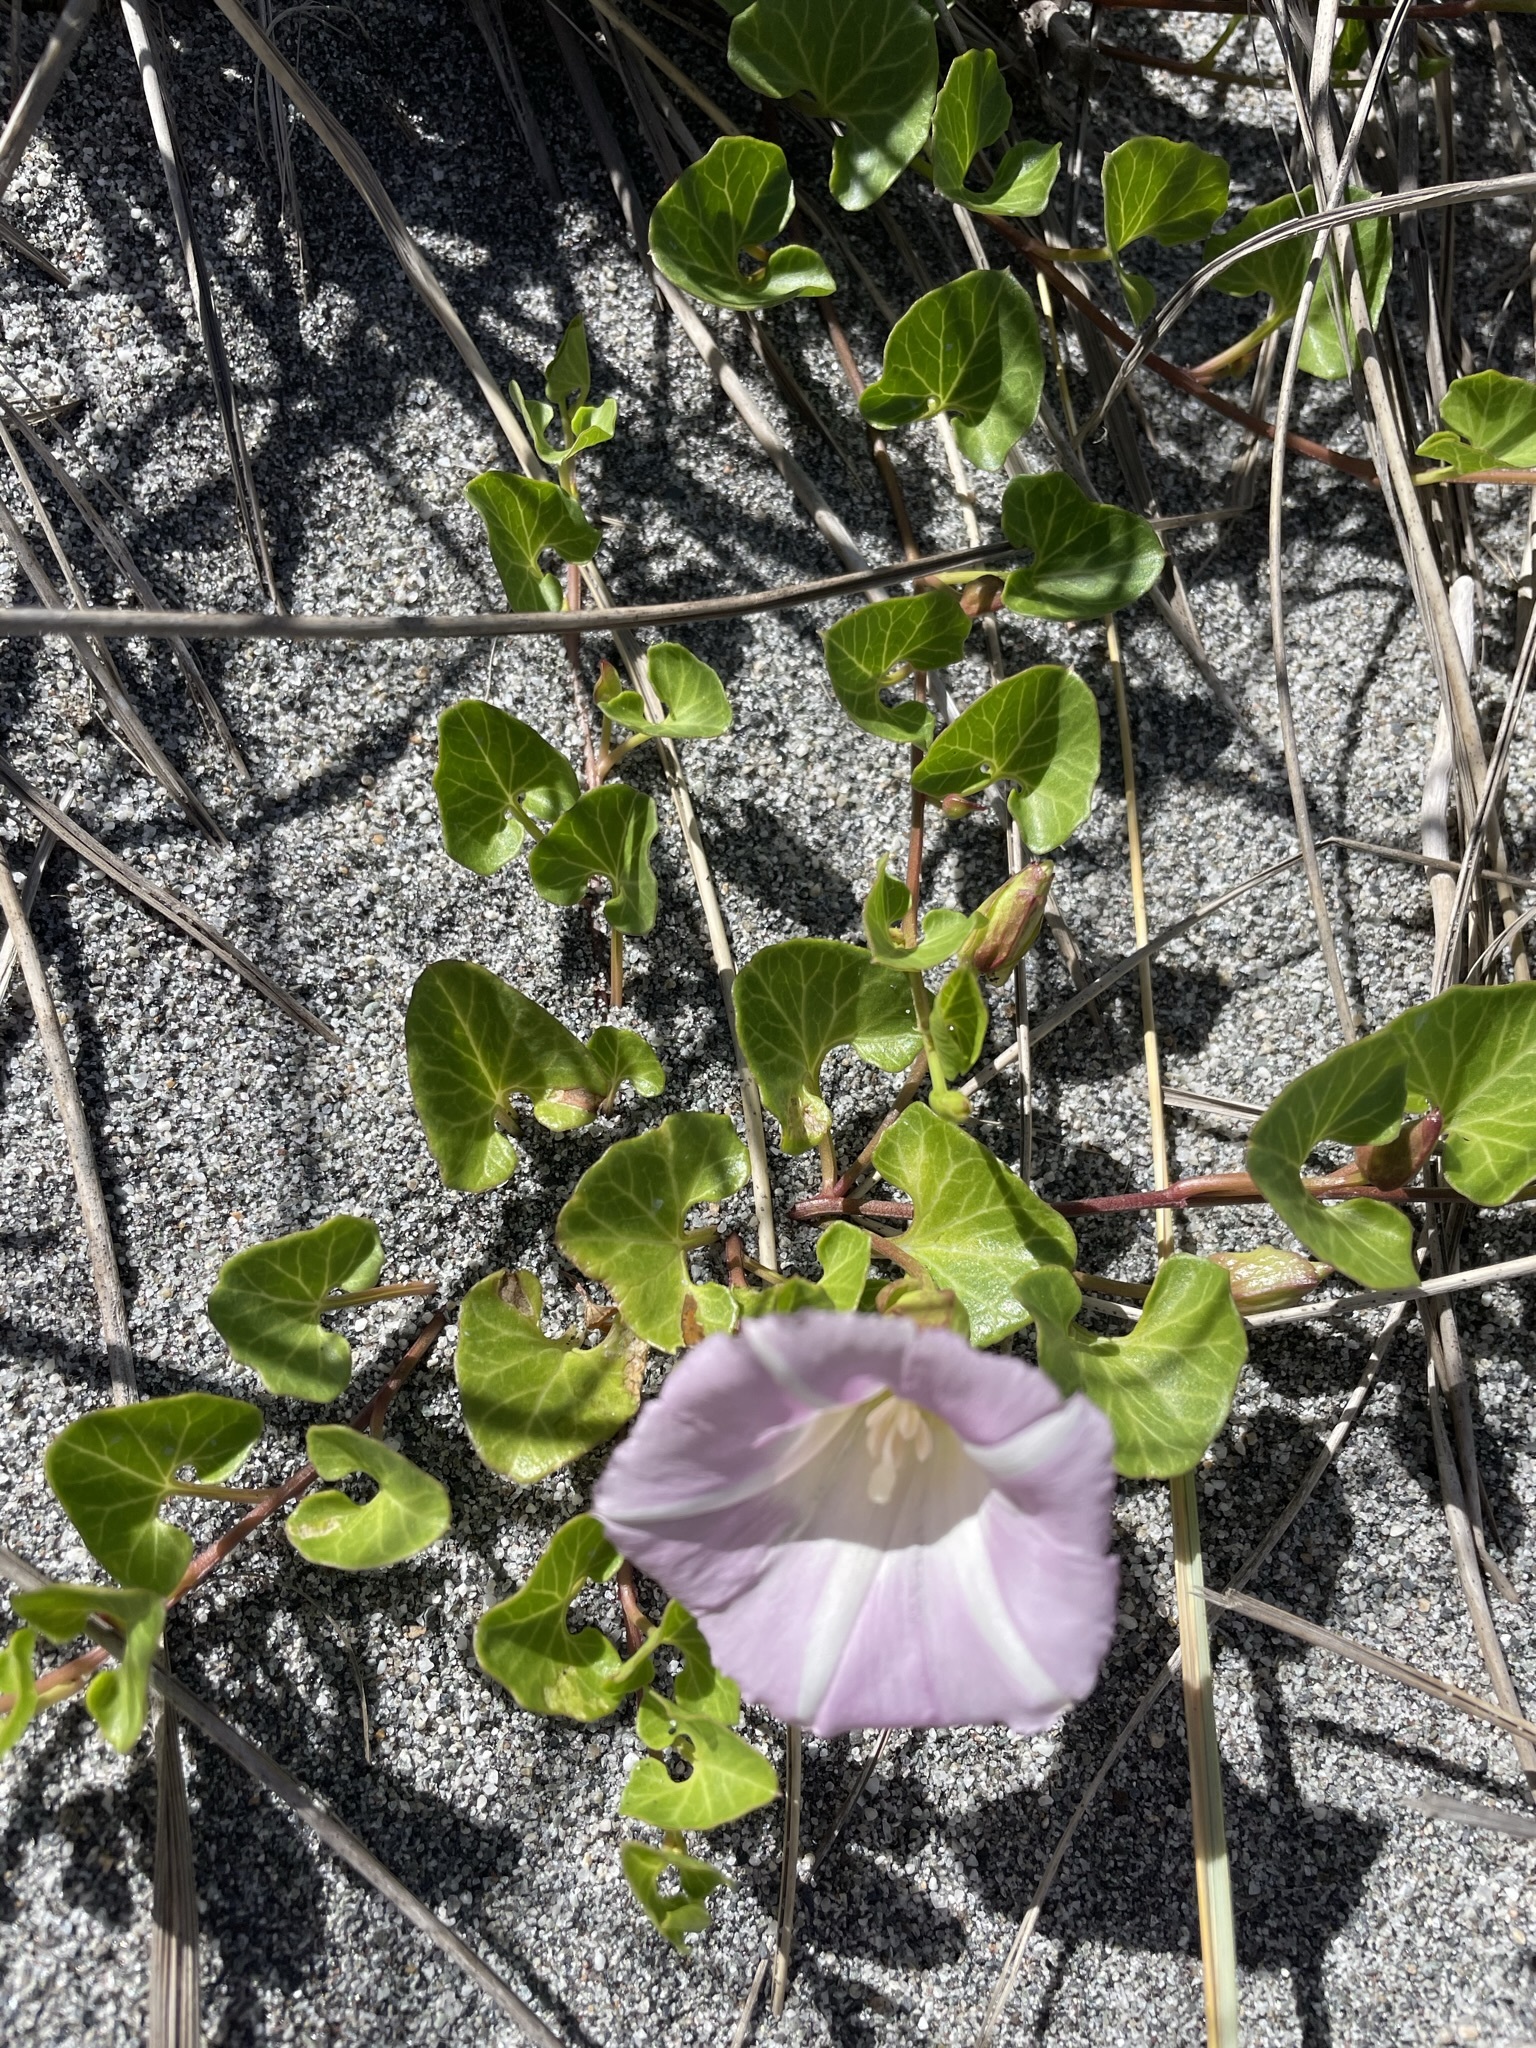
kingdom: Plantae
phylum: Tracheophyta
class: Magnoliopsida
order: Solanales
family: Convolvulaceae
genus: Calystegia
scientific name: Calystegia soldanella
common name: Sea bindweed
